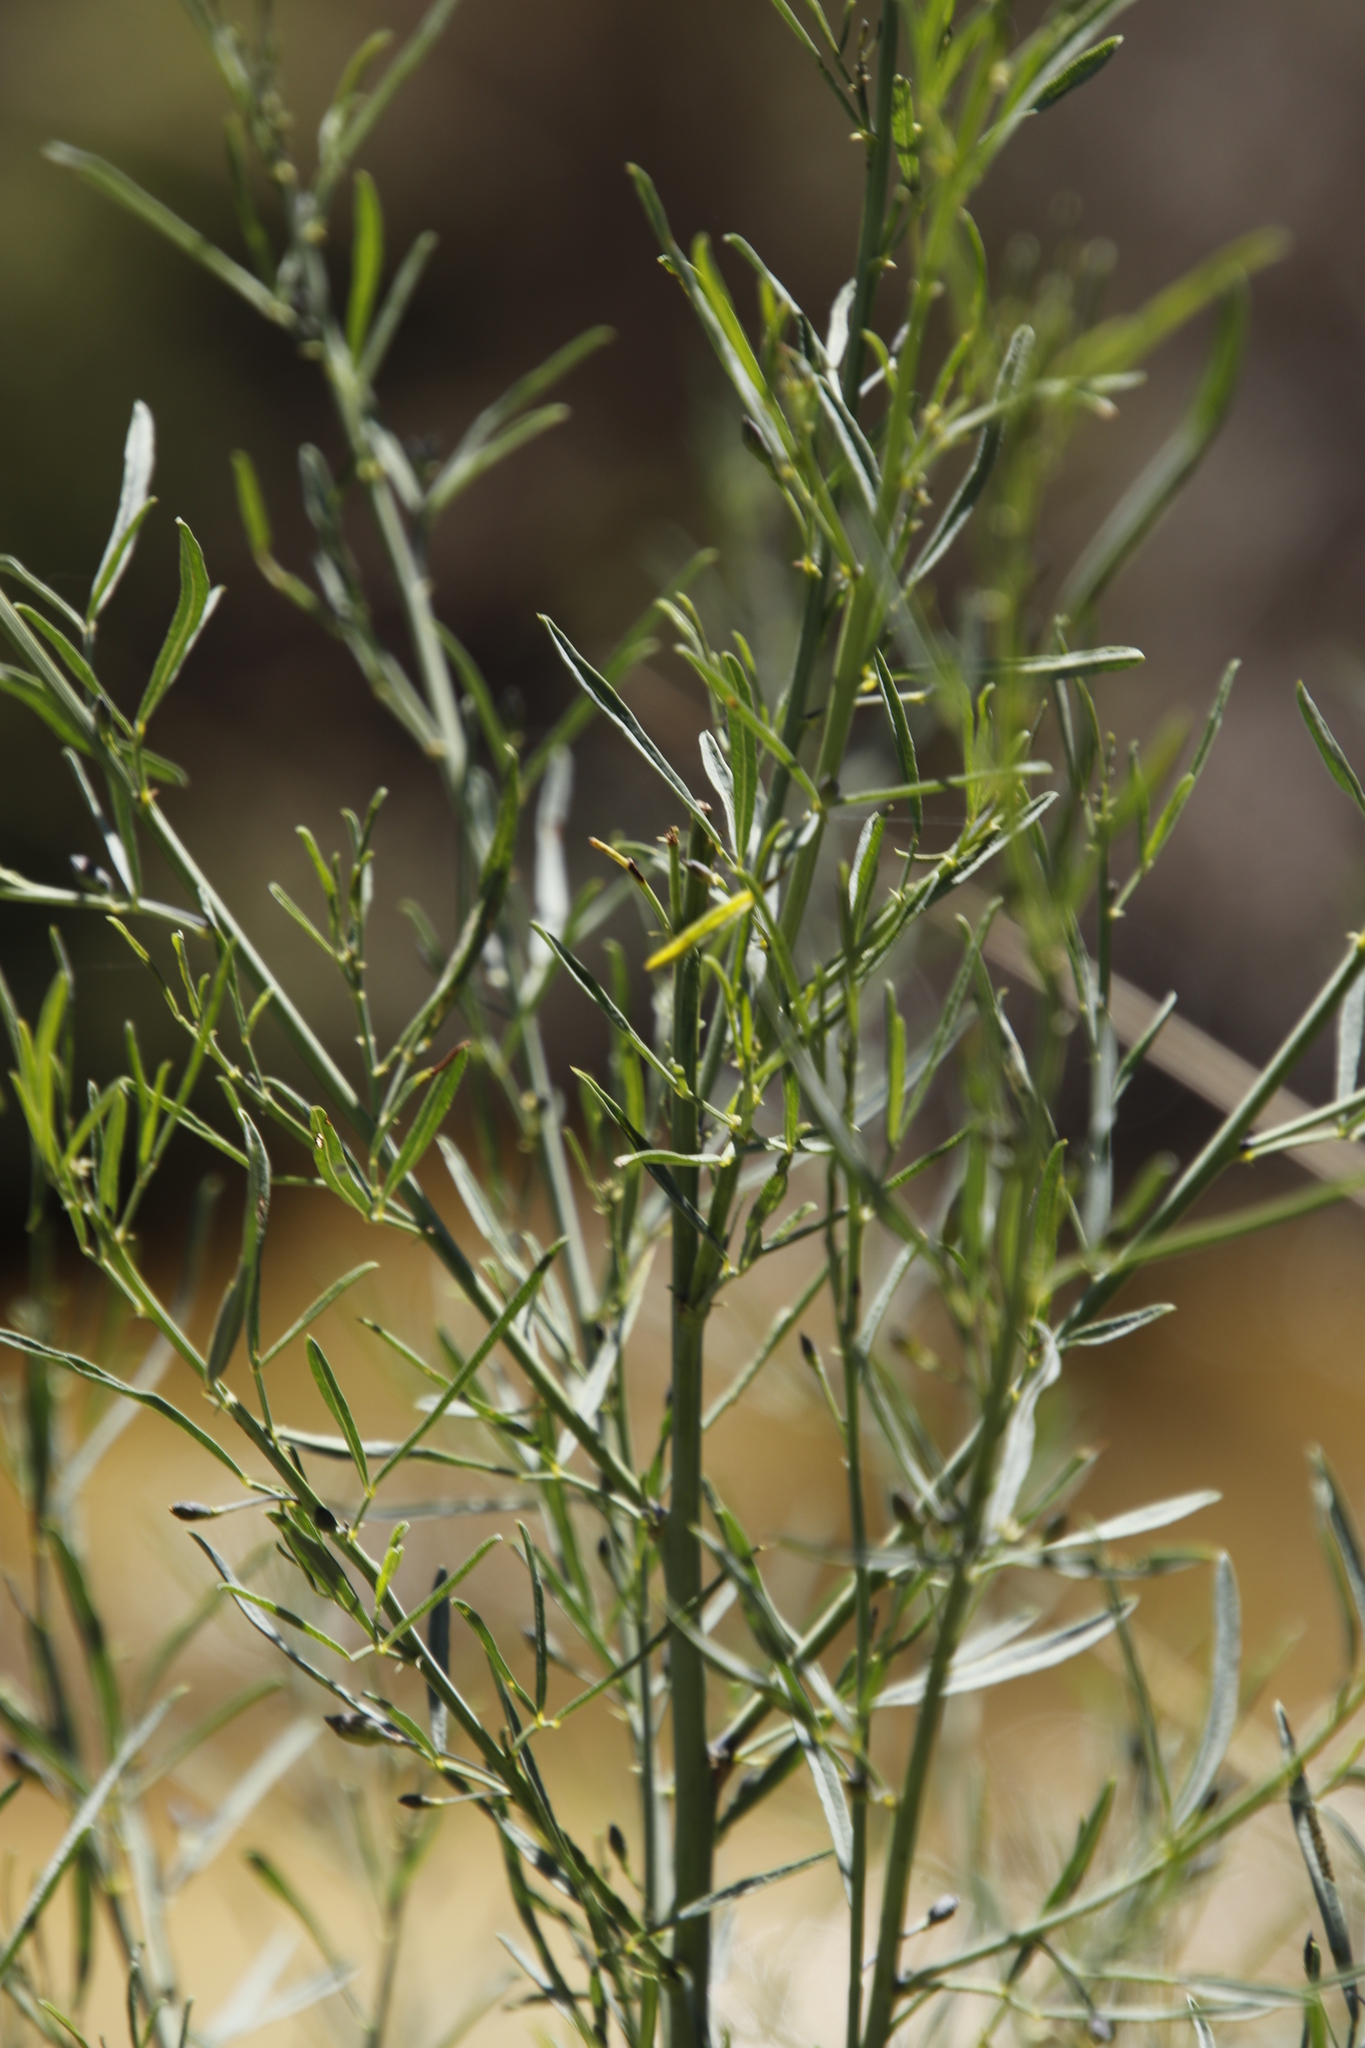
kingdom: Plantae
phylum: Tracheophyta
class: Magnoliopsida
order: Fabales
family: Fabaceae
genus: Psoralea
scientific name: Psoralea oligophylla
